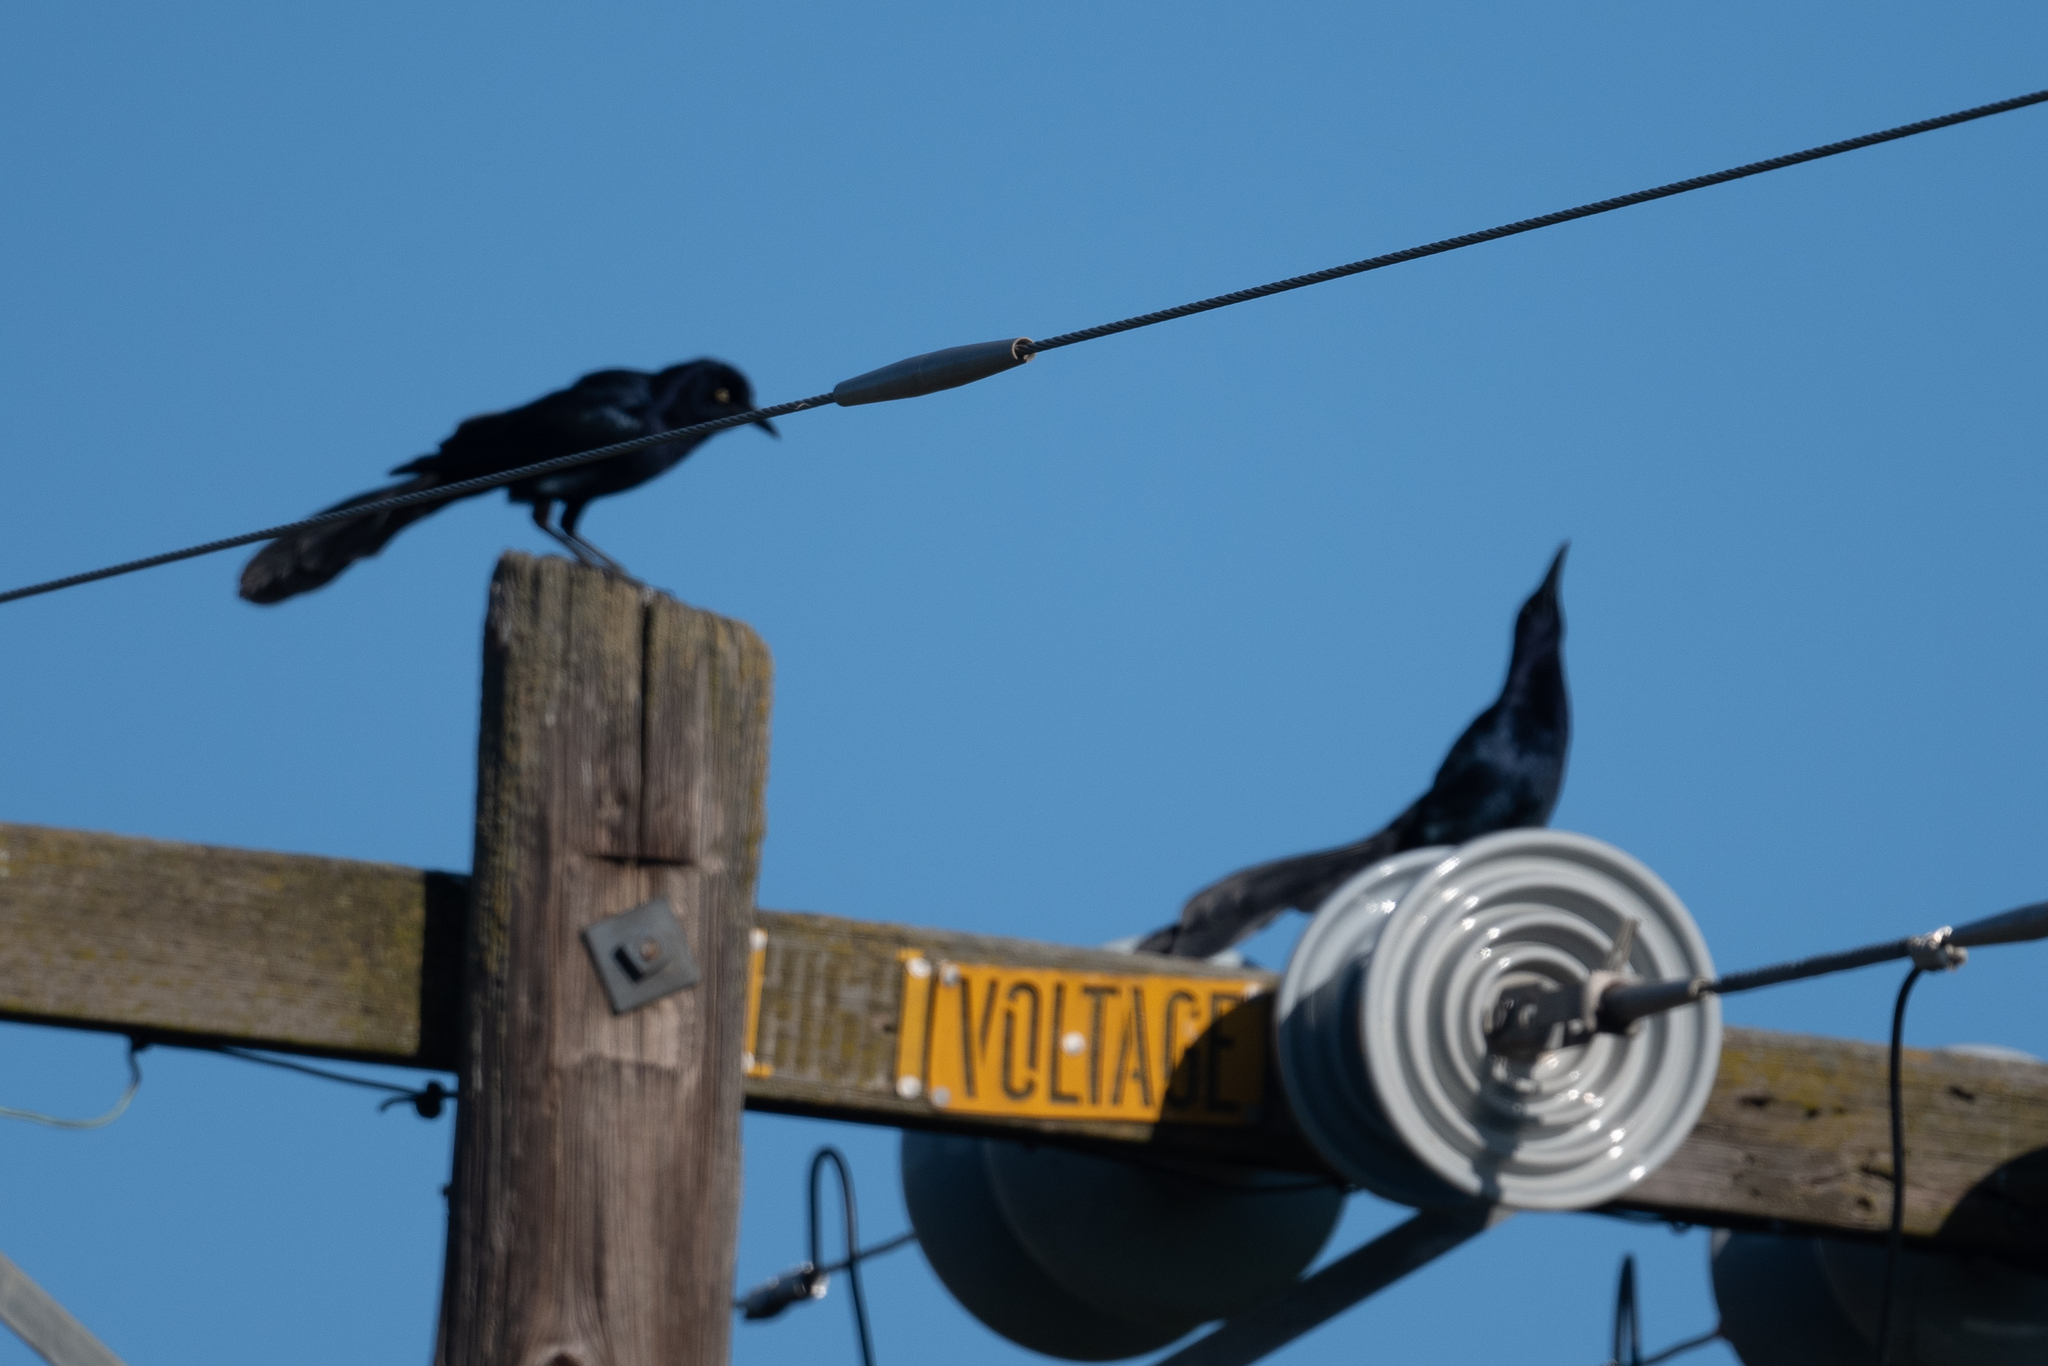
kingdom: Animalia
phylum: Chordata
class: Aves
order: Passeriformes
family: Icteridae
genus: Quiscalus
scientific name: Quiscalus mexicanus
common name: Great-tailed grackle
